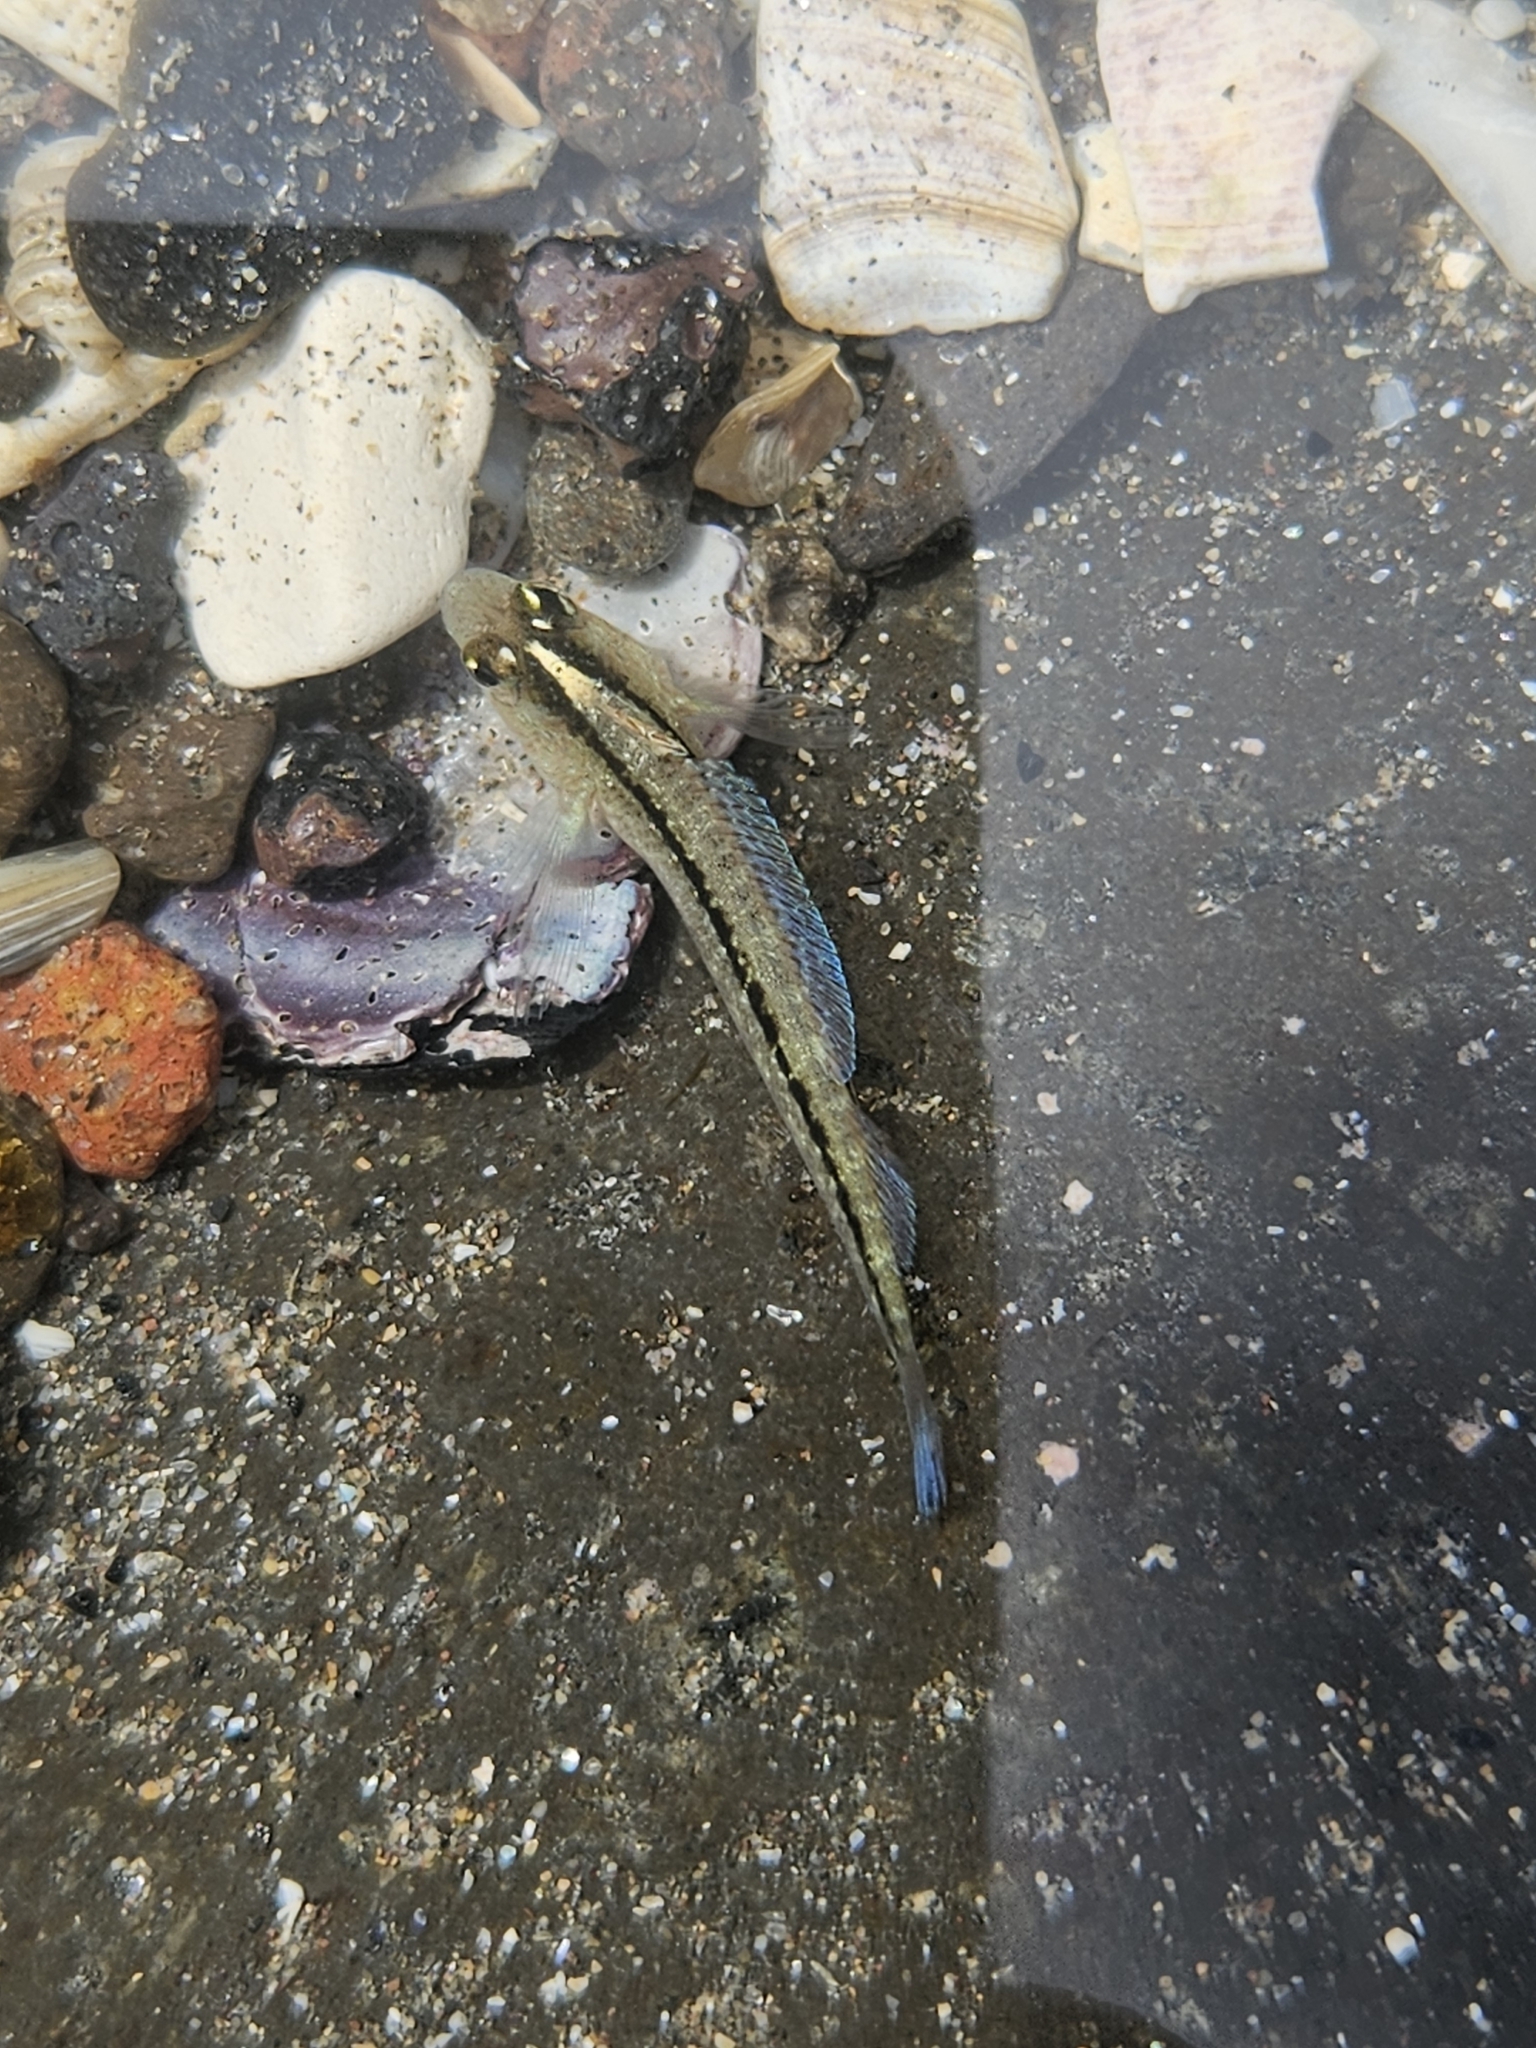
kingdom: Animalia
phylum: Chordata
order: Perciformes
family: Tripterygiidae
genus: Forsterygion
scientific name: Forsterygion lapillum
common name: Common triplefin
